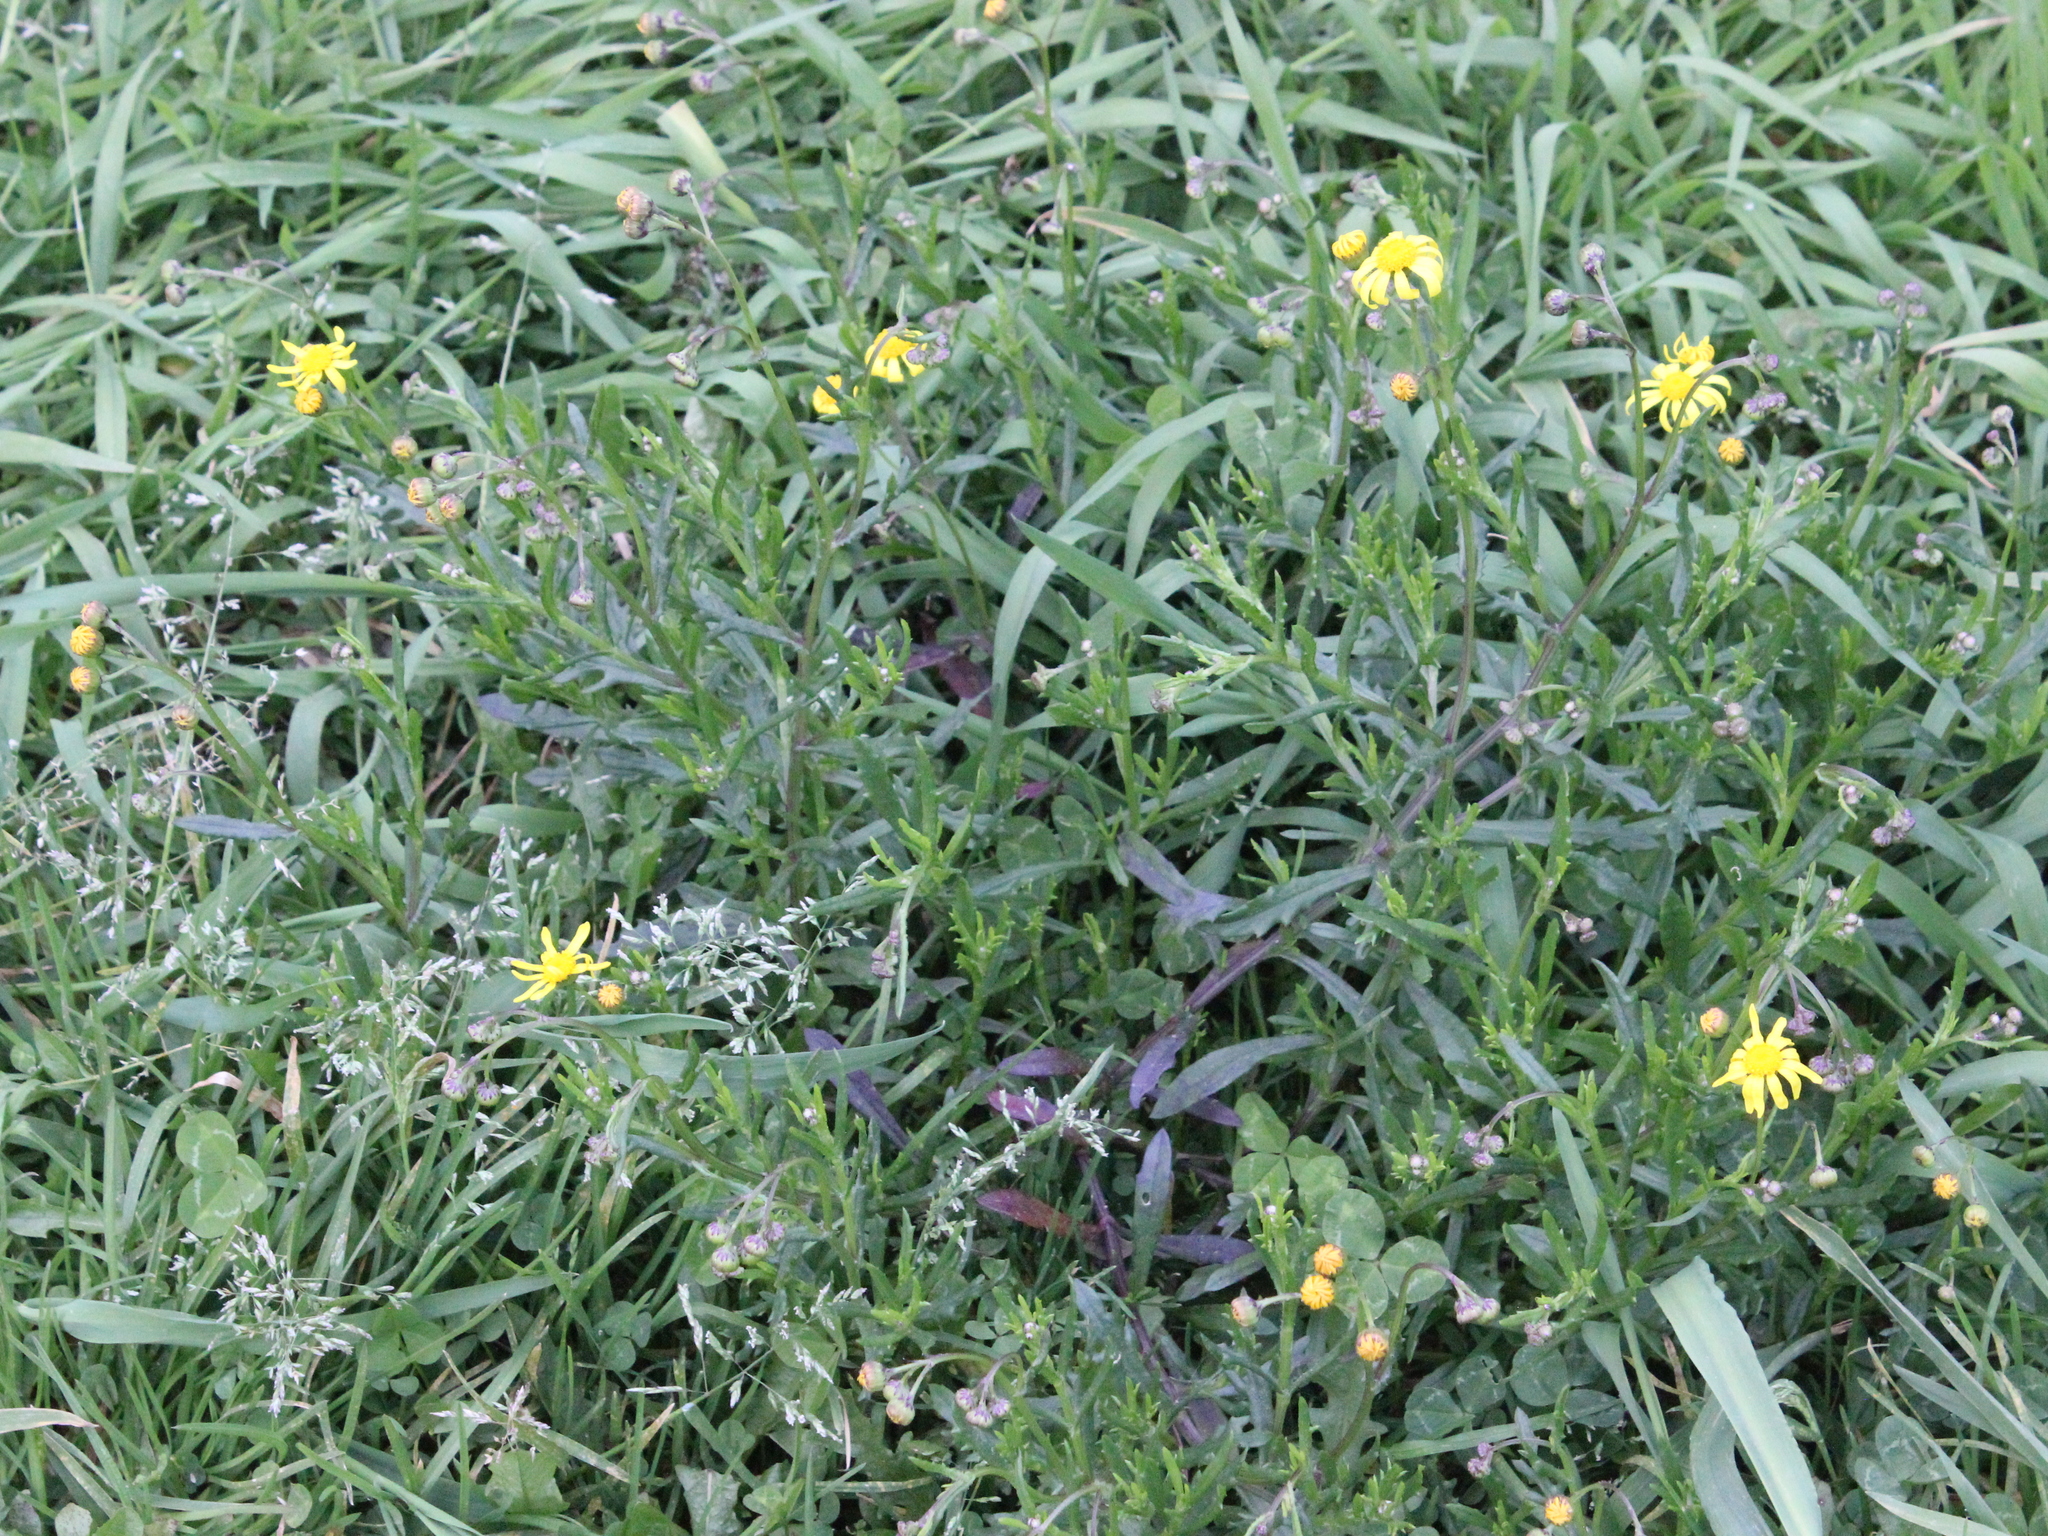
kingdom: Plantae
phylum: Tracheophyta
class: Magnoliopsida
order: Asterales
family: Asteraceae
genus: Senecio
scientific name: Senecio skirrhodon
